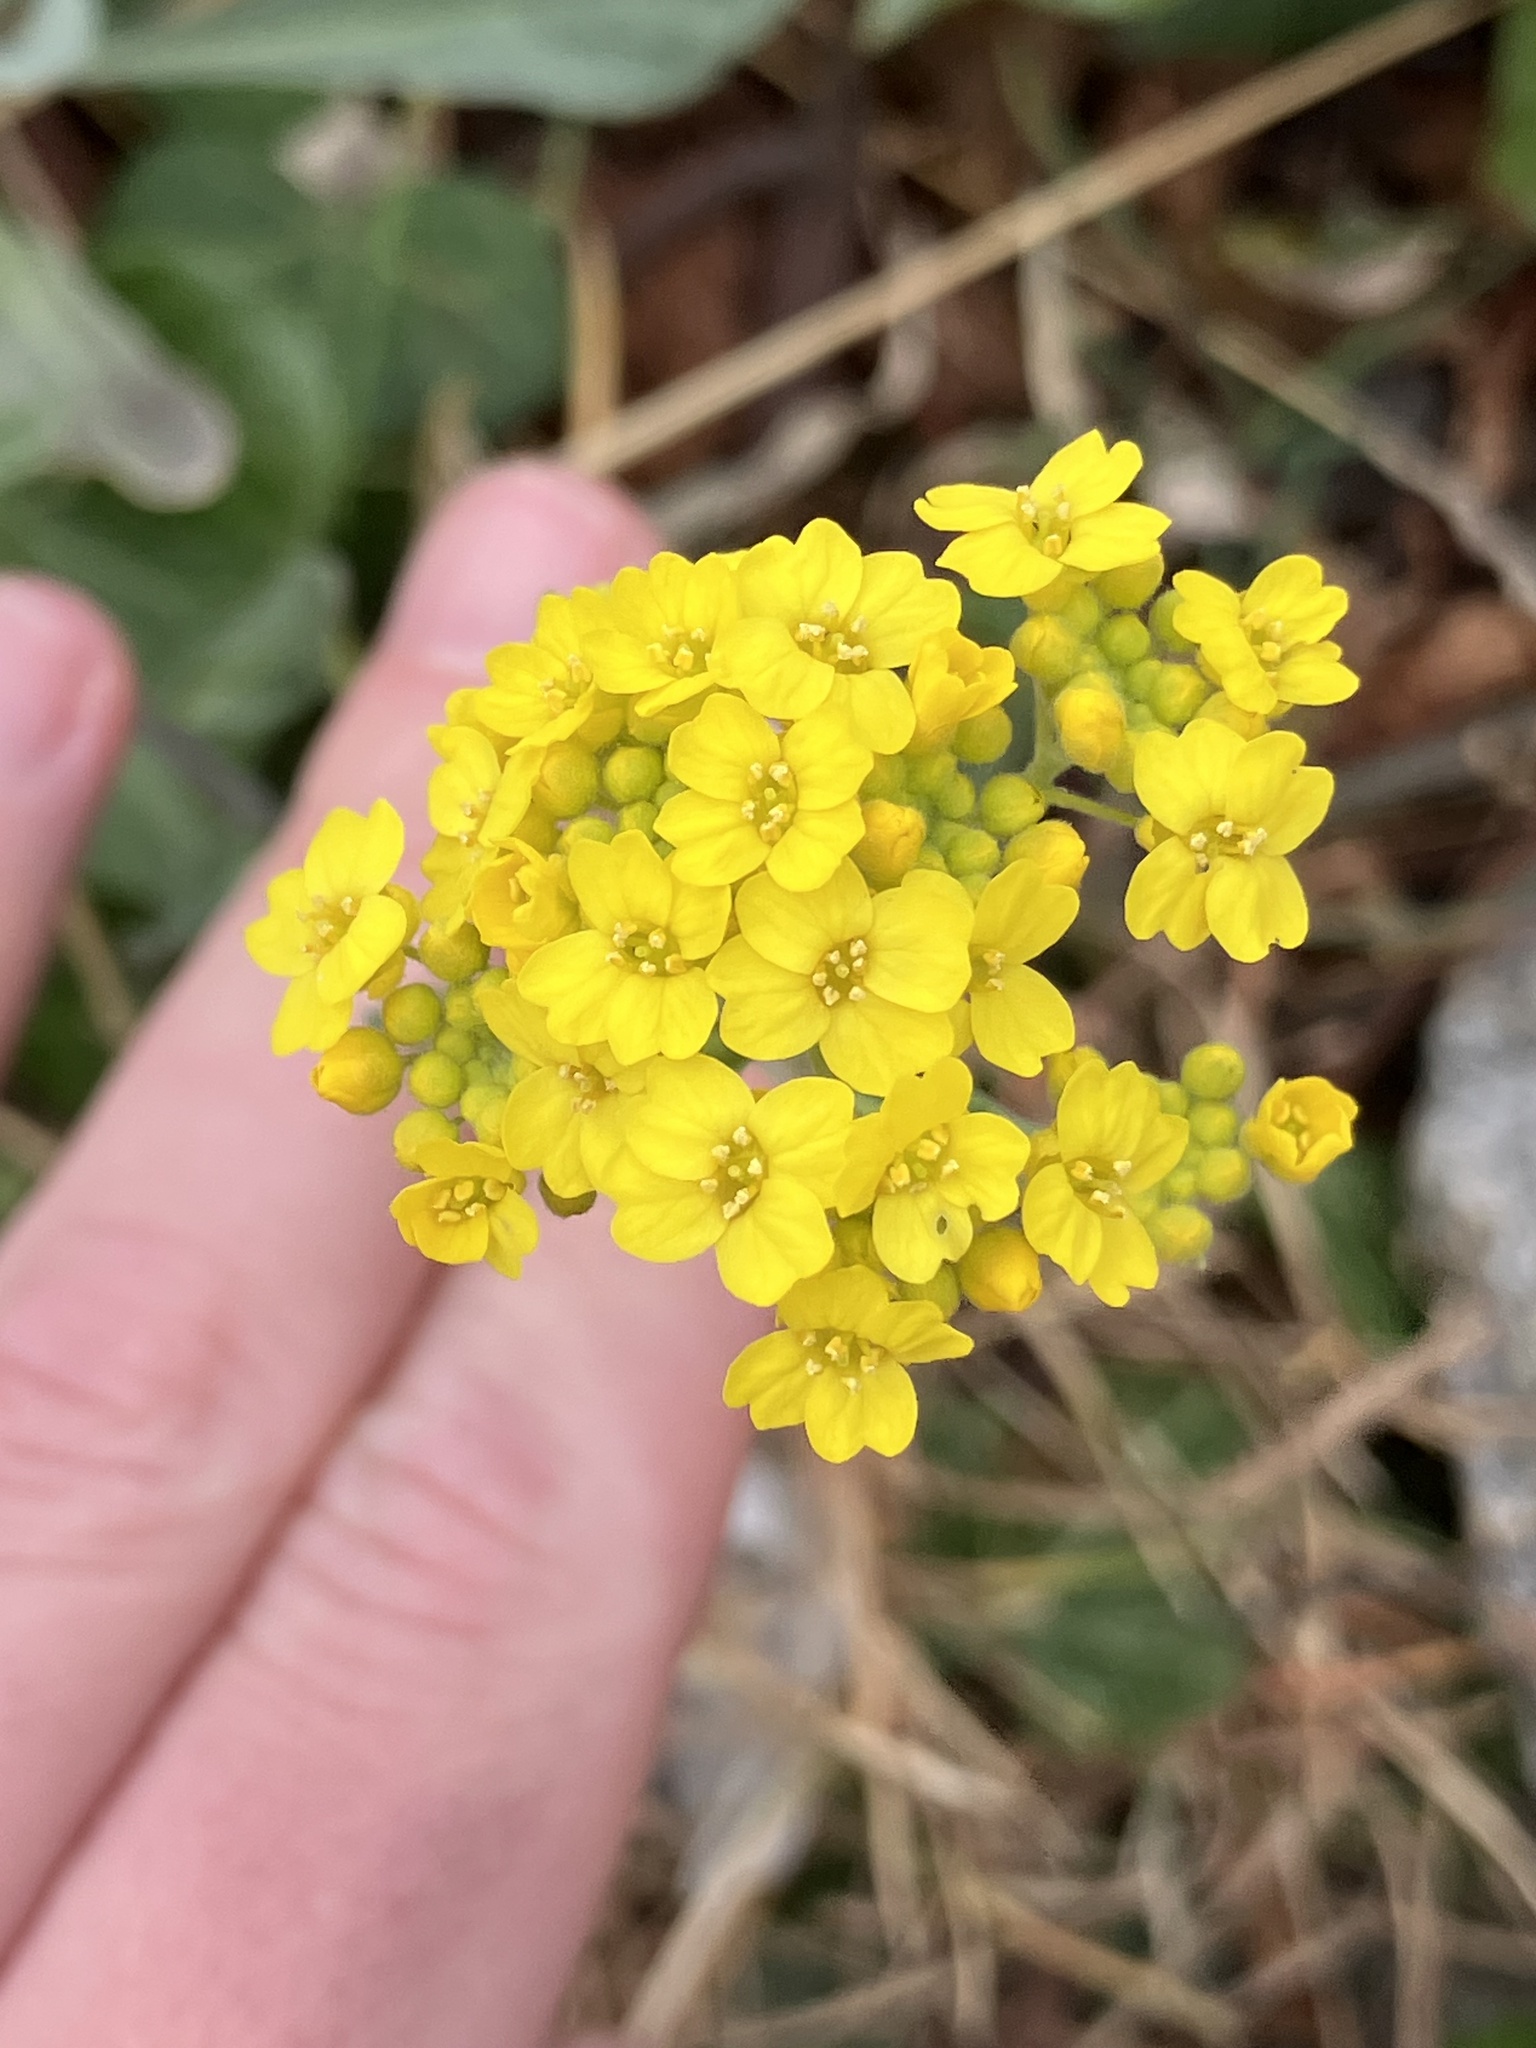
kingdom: Plantae
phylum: Tracheophyta
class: Magnoliopsida
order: Brassicales
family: Brassicaceae
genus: Aurinia
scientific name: Aurinia saxatilis
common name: Golden-tuft alyssum
